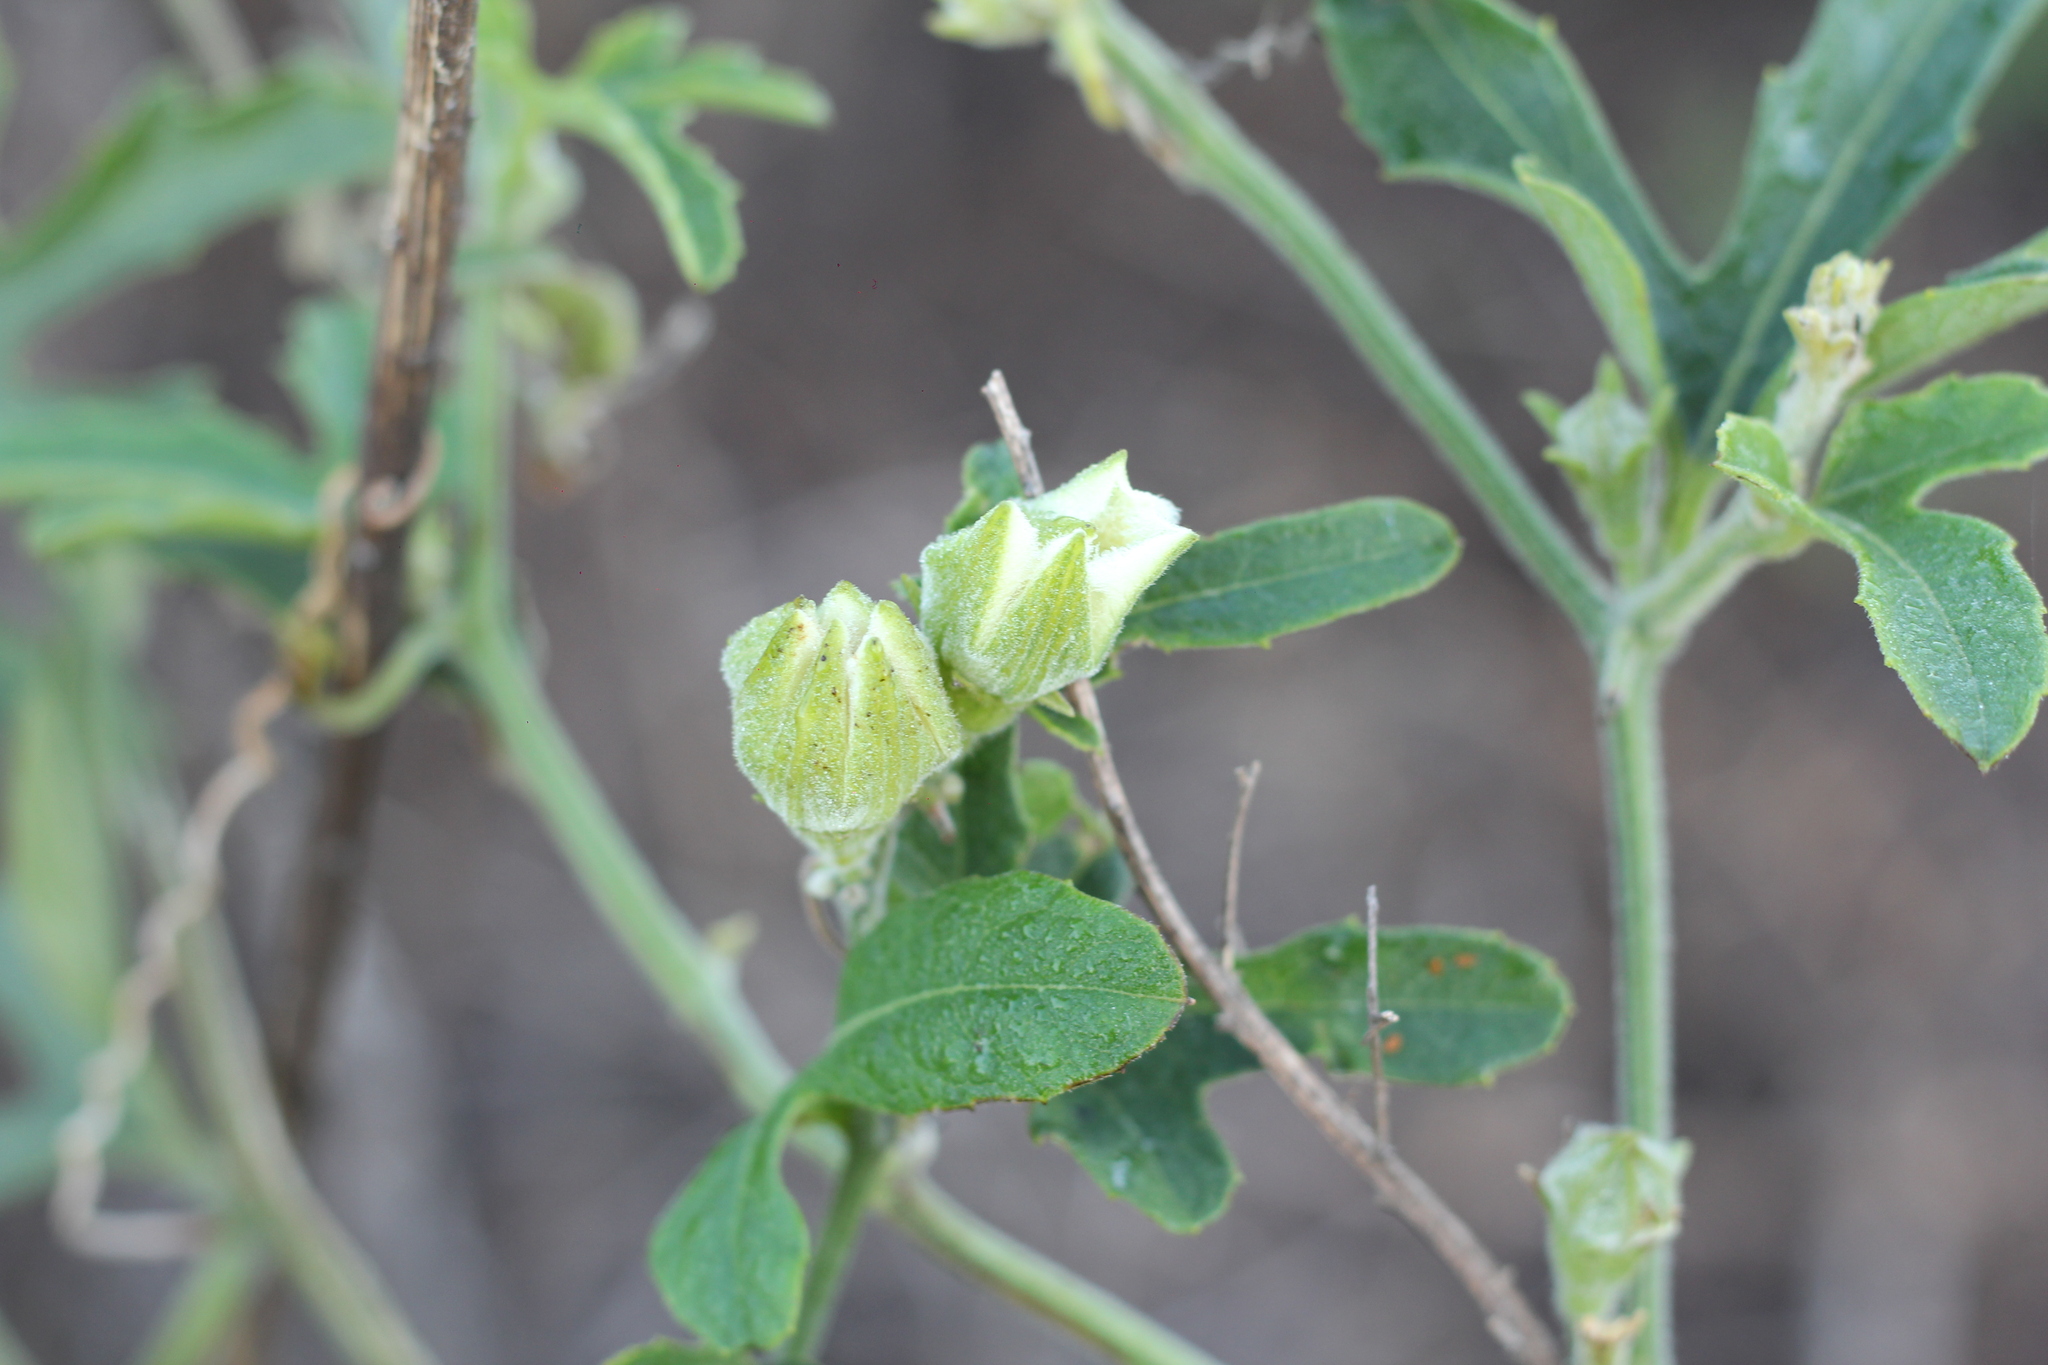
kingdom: Plantae
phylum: Tracheophyta
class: Magnoliopsida
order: Cucurbitales
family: Cucurbitaceae
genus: Cayaponia
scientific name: Cayaponia podantha
